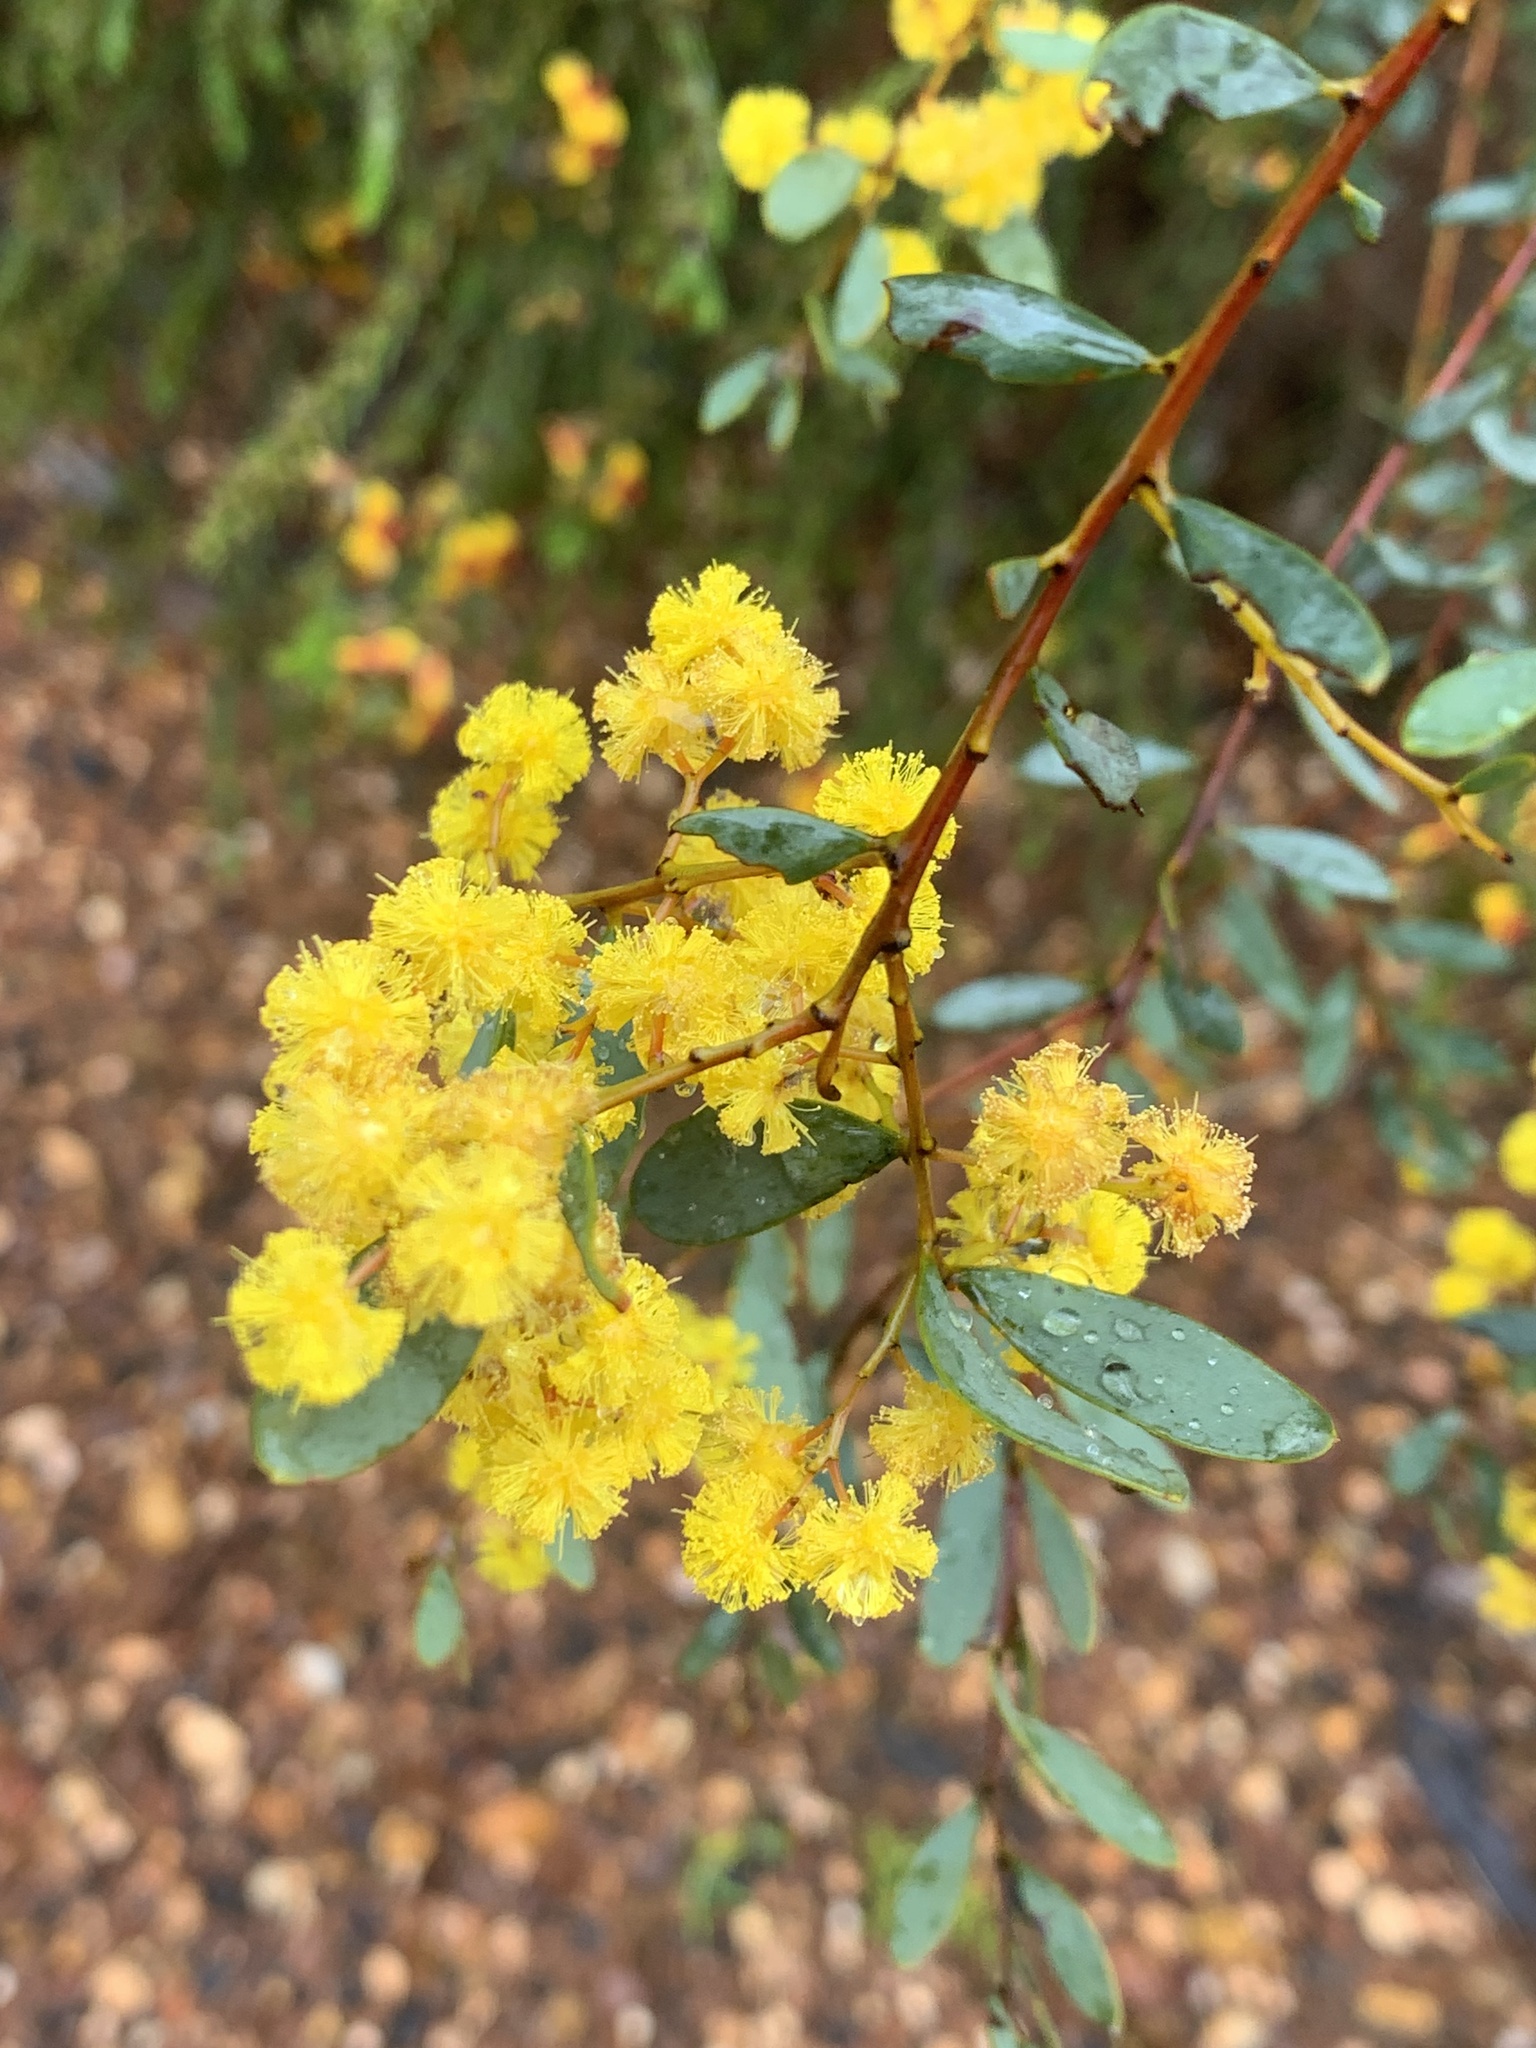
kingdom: Plantae
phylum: Tracheophyta
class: Magnoliopsida
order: Fabales
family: Fabaceae
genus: Acacia
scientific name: Acacia buxifolia
